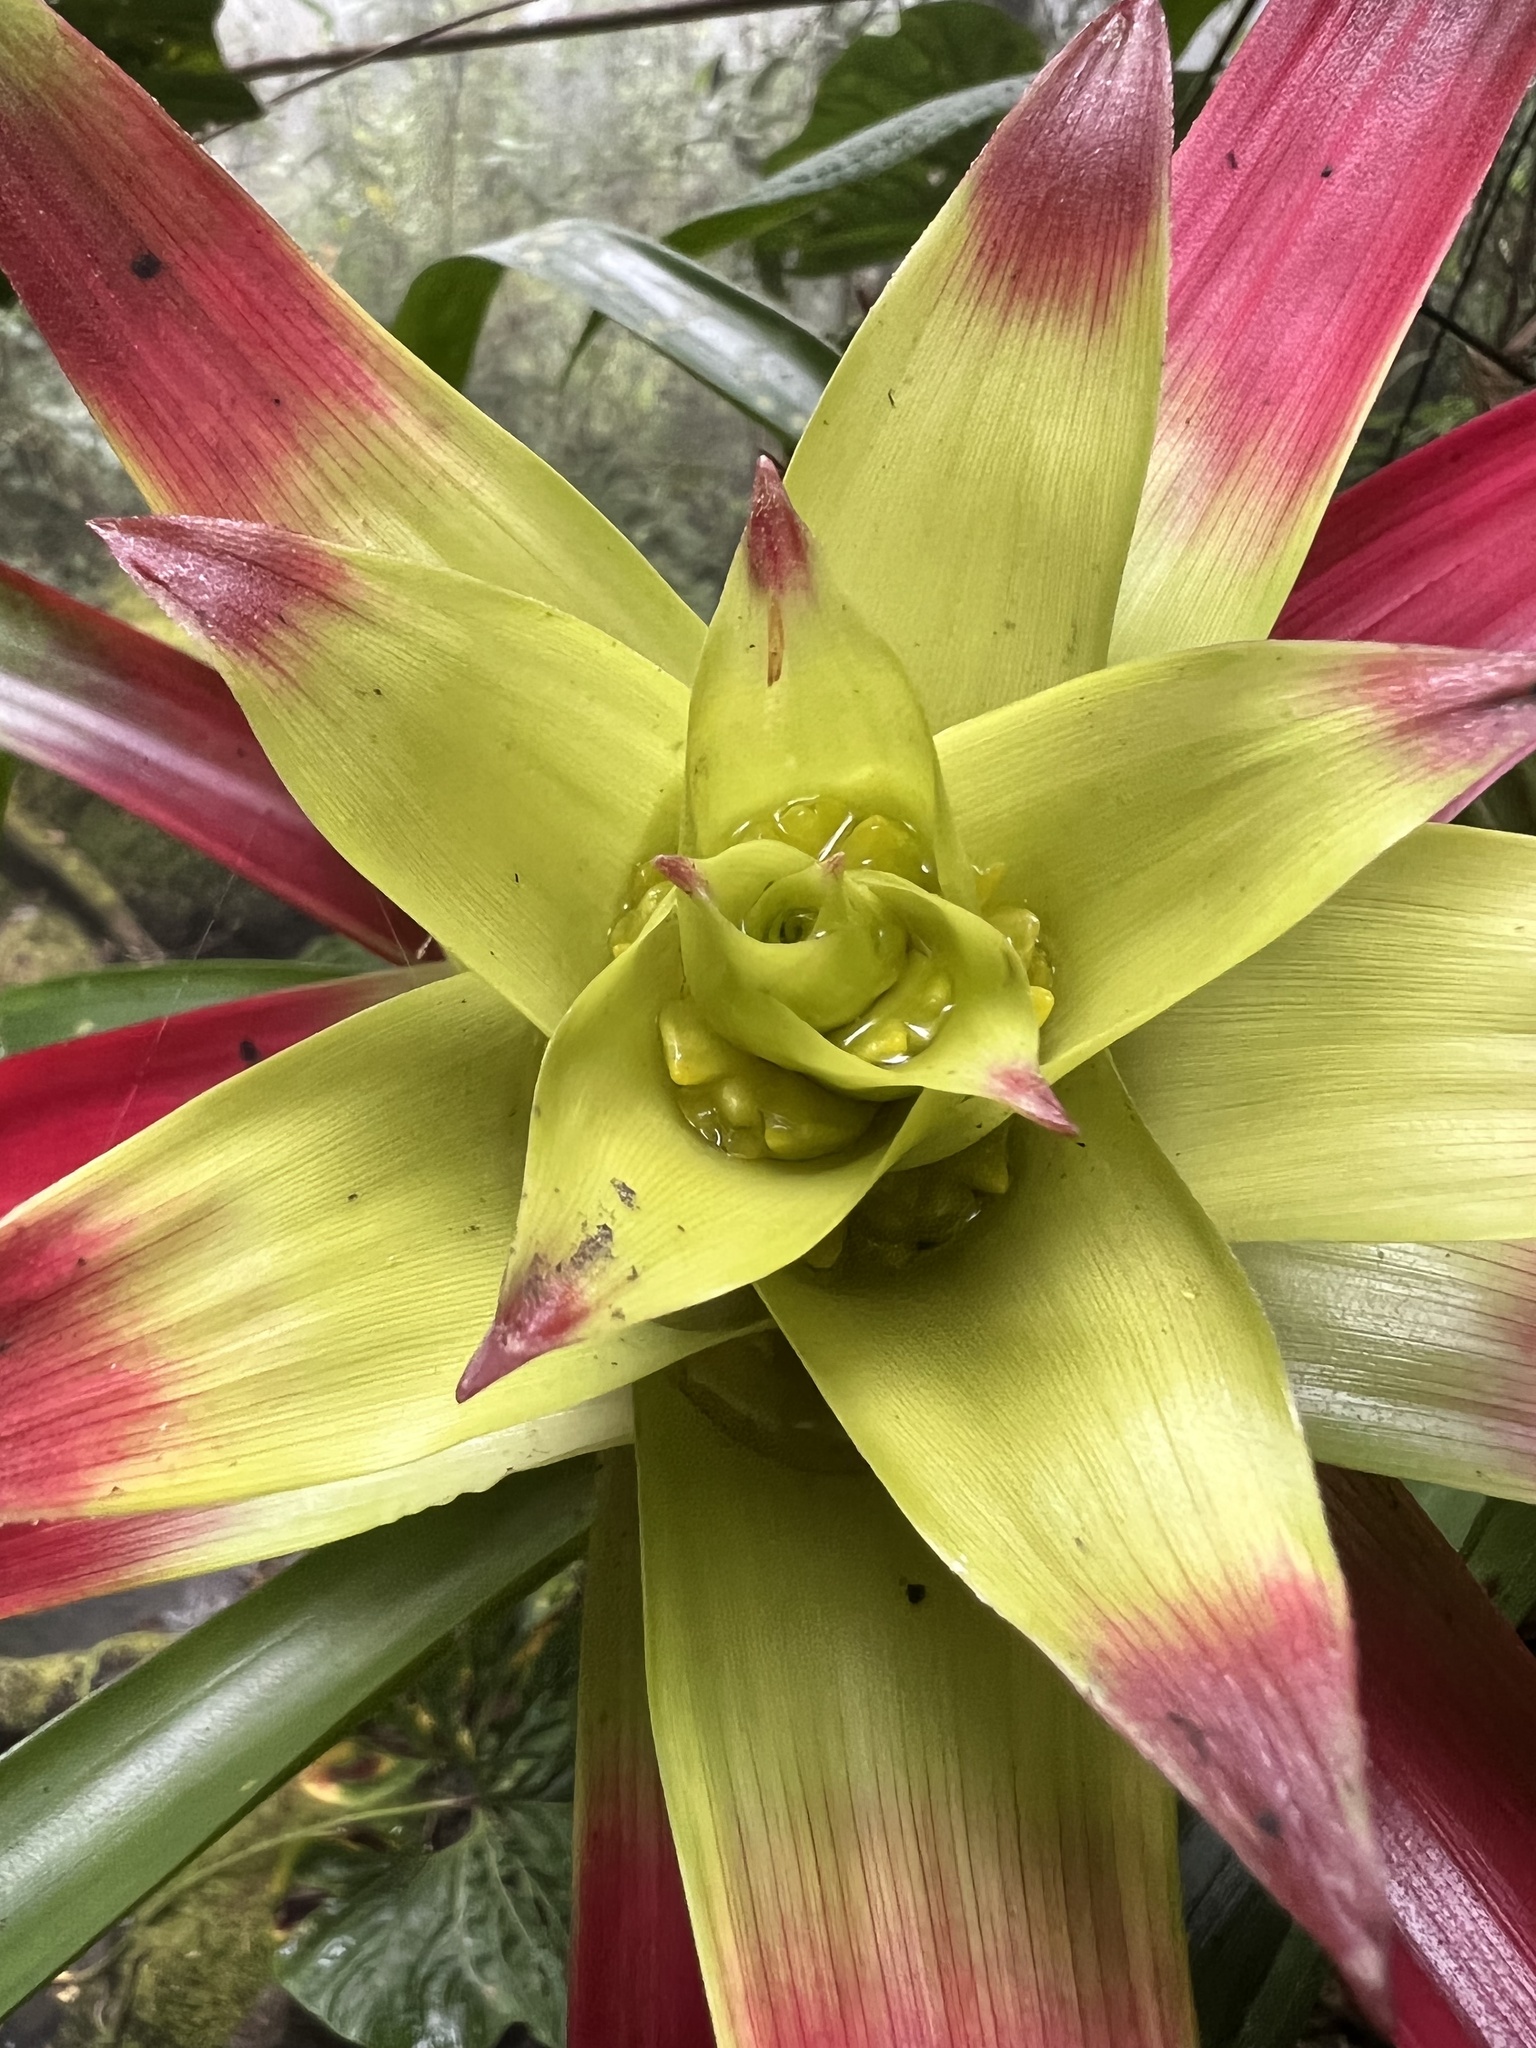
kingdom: Plantae
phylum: Tracheophyta
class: Liliopsida
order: Poales
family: Bromeliaceae
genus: Guzmania
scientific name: Guzmania squarrosa
